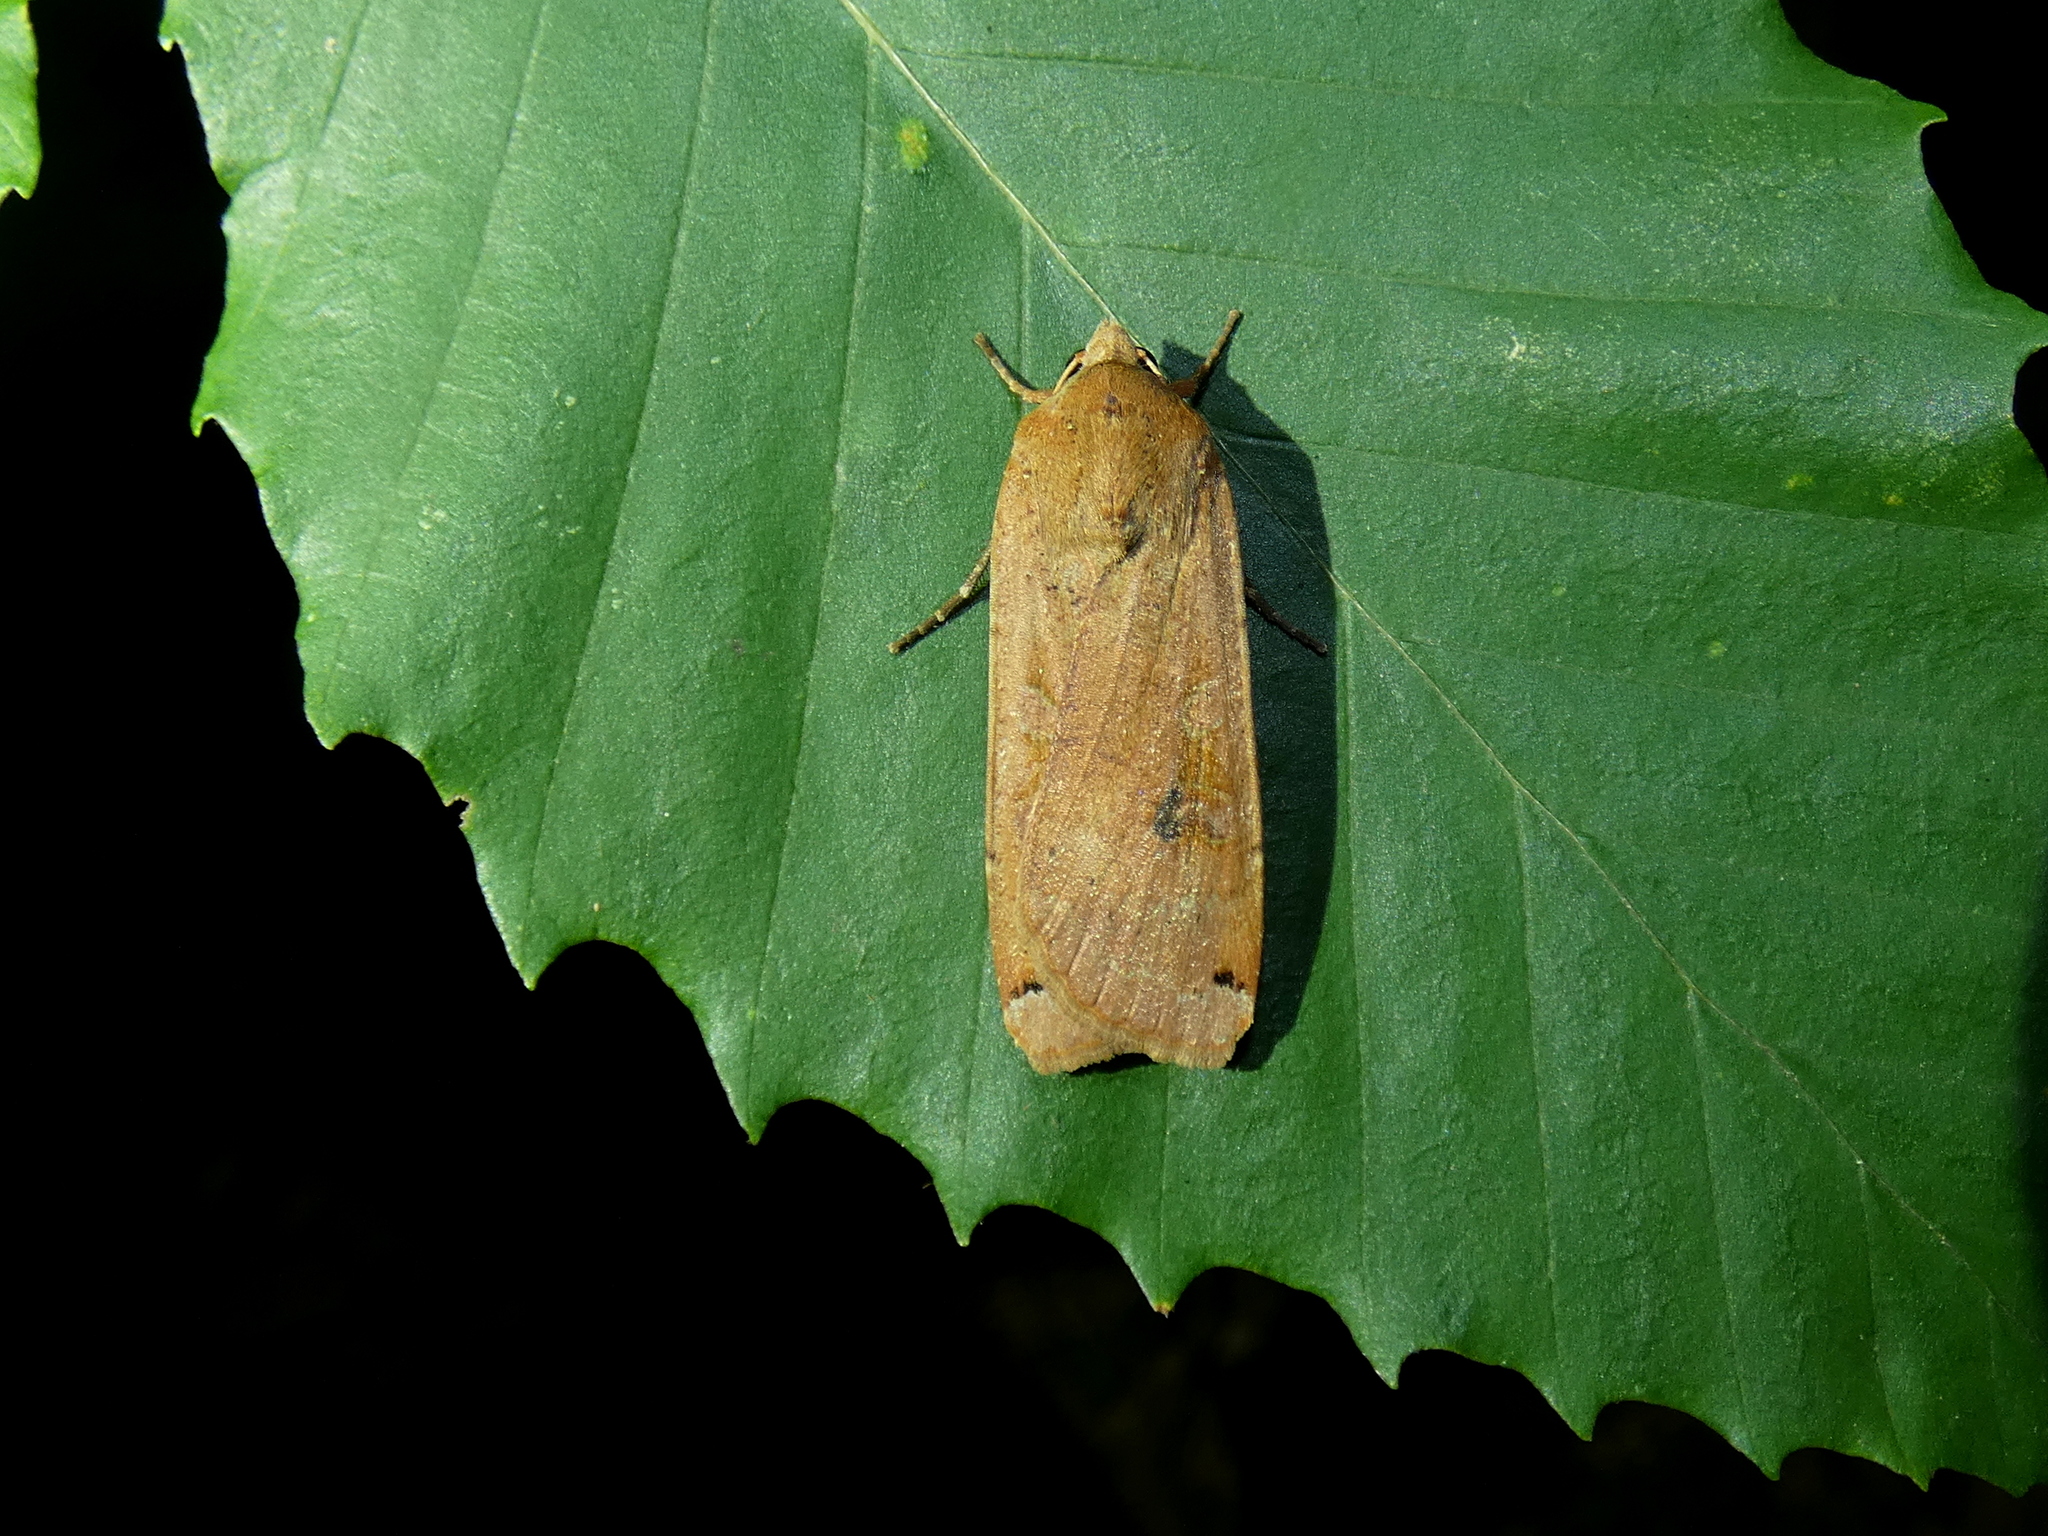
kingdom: Animalia
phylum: Arthropoda
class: Insecta
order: Lepidoptera
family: Noctuidae
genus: Noctua
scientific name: Noctua pronuba
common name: Large yellow underwing
